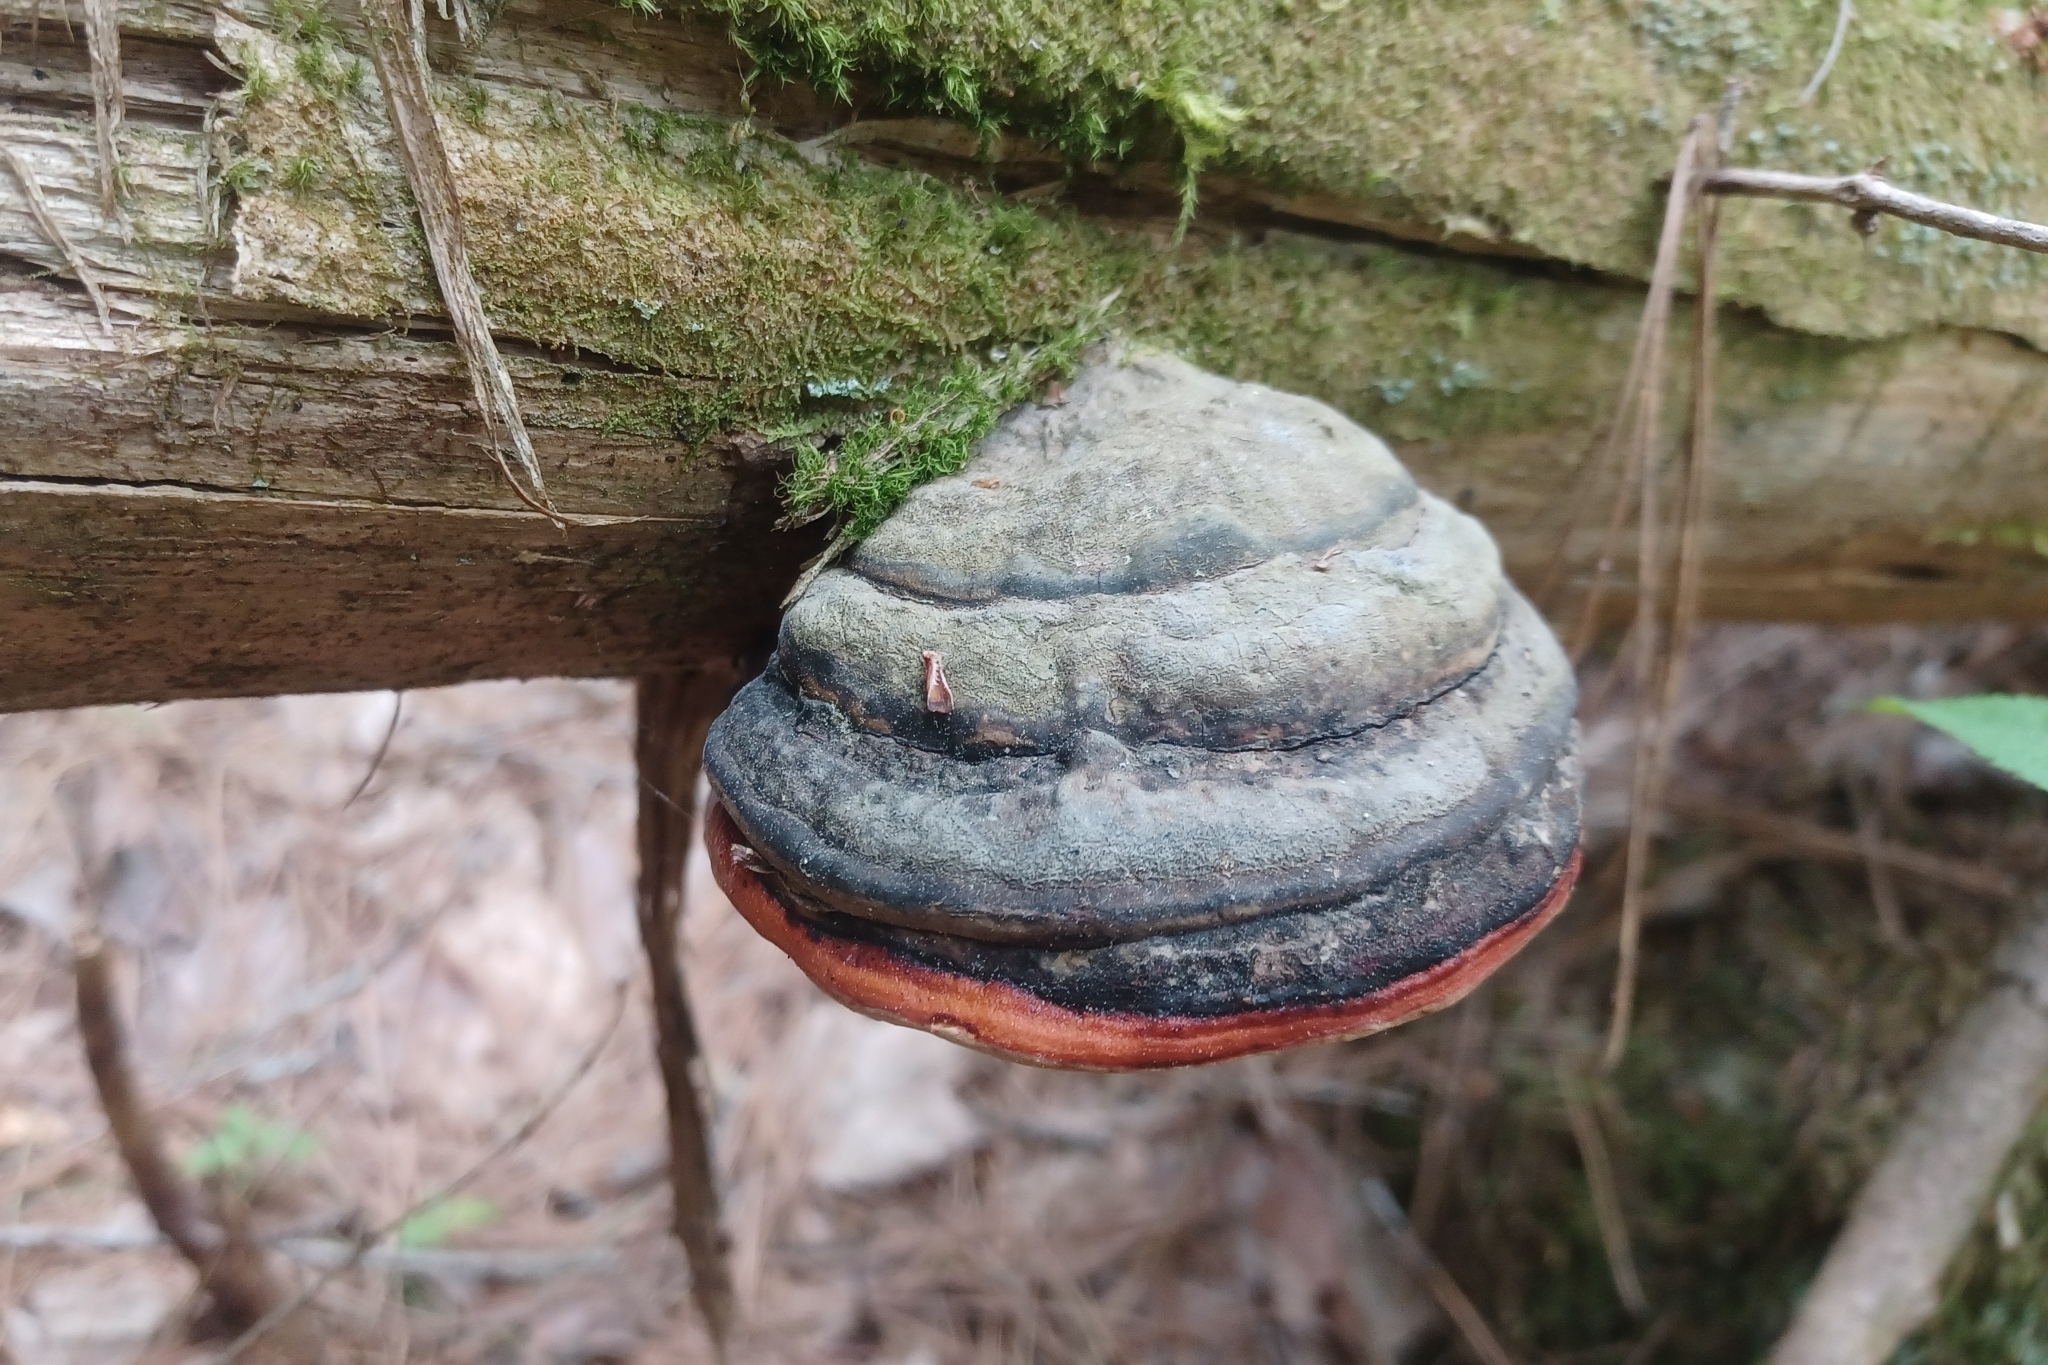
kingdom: Fungi
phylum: Basidiomycota
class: Agaricomycetes
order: Polyporales
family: Fomitopsidaceae
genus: Fomitopsis
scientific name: Fomitopsis mounceae
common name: Northern red belt
